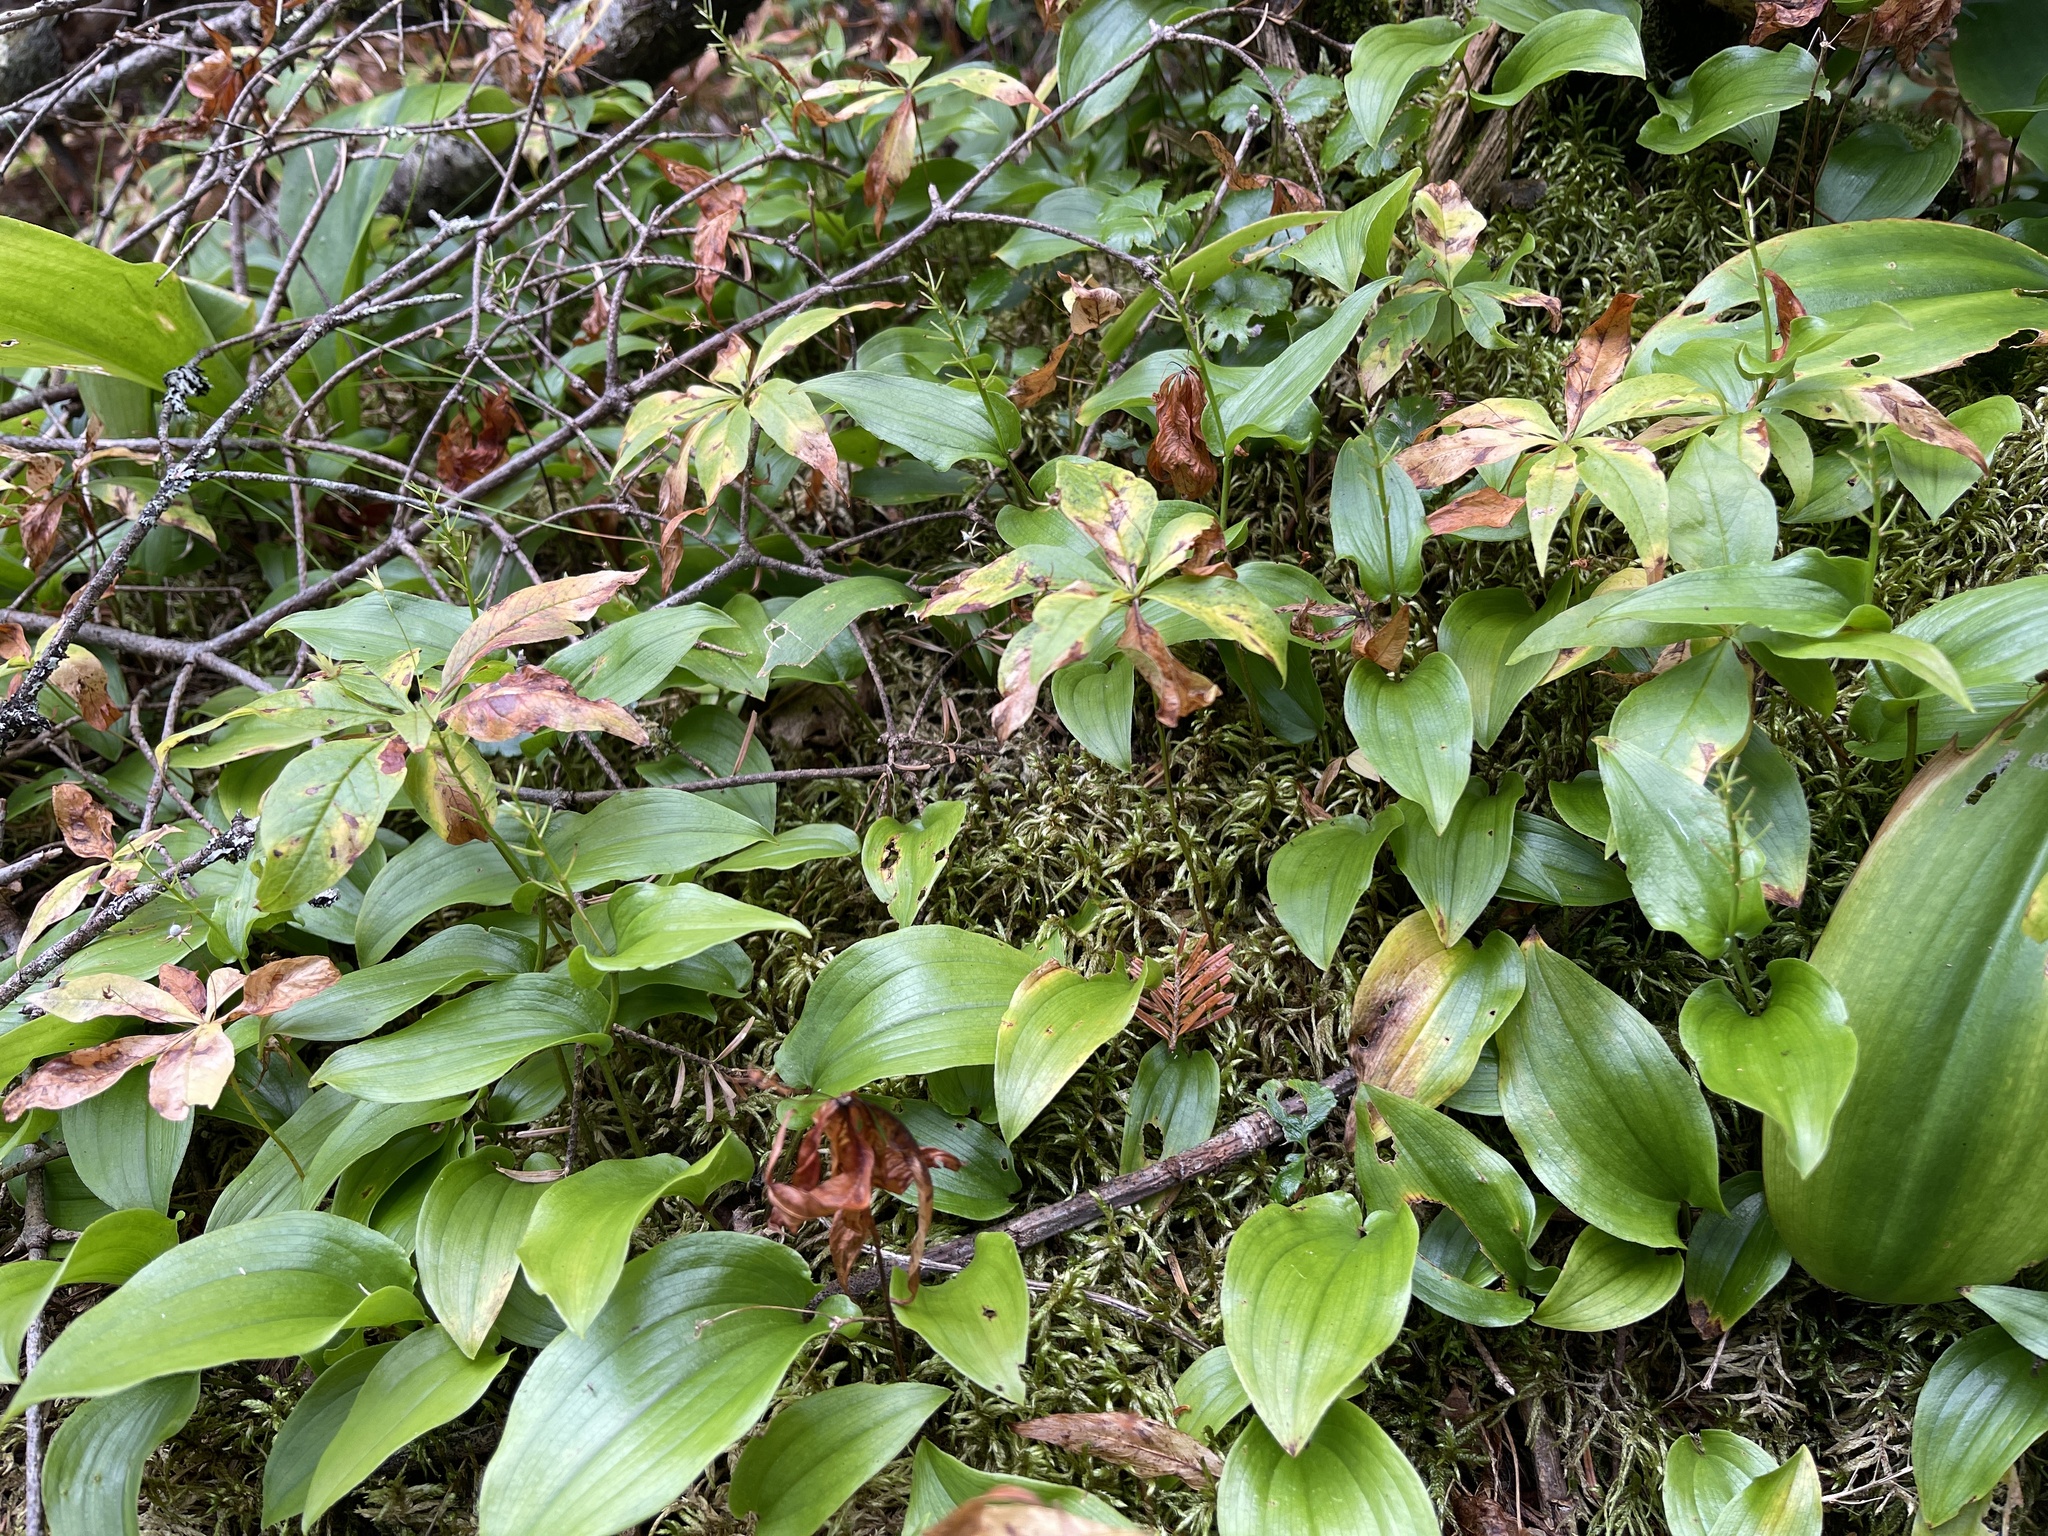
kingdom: Plantae
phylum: Tracheophyta
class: Liliopsida
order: Asparagales
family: Asparagaceae
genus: Maianthemum
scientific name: Maianthemum canadense
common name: False lily-of-the-valley
